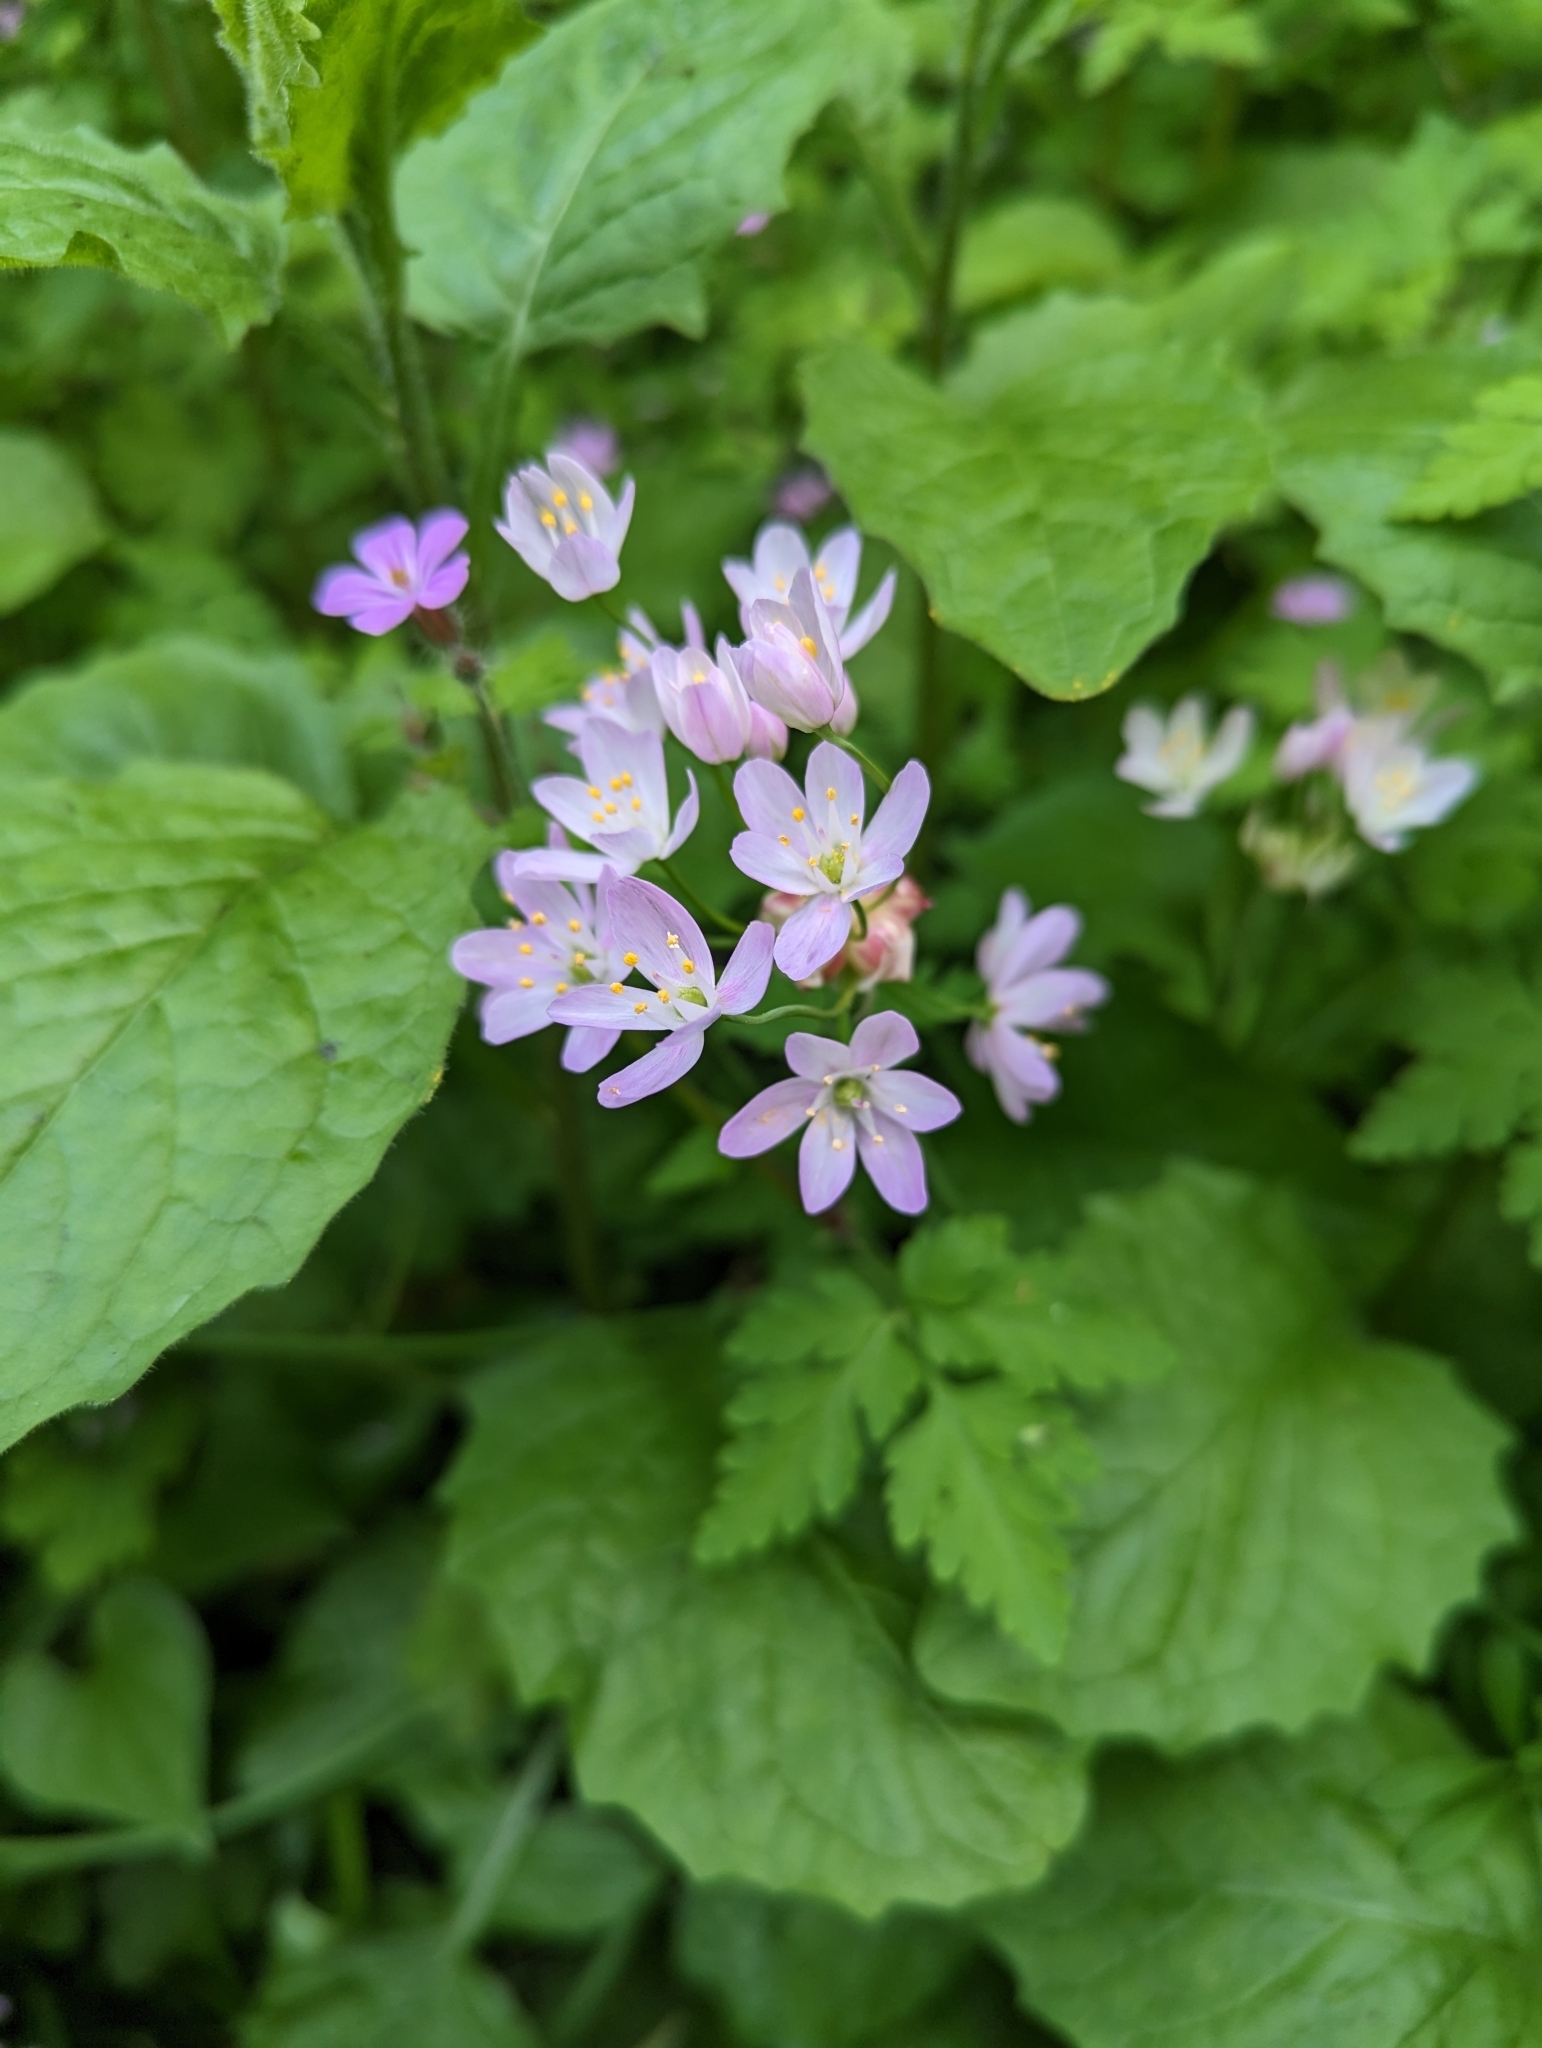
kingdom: Plantae
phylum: Tracheophyta
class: Liliopsida
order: Asparagales
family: Amaryllidaceae
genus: Allium
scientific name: Allium roseum
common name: Rosy garlic
